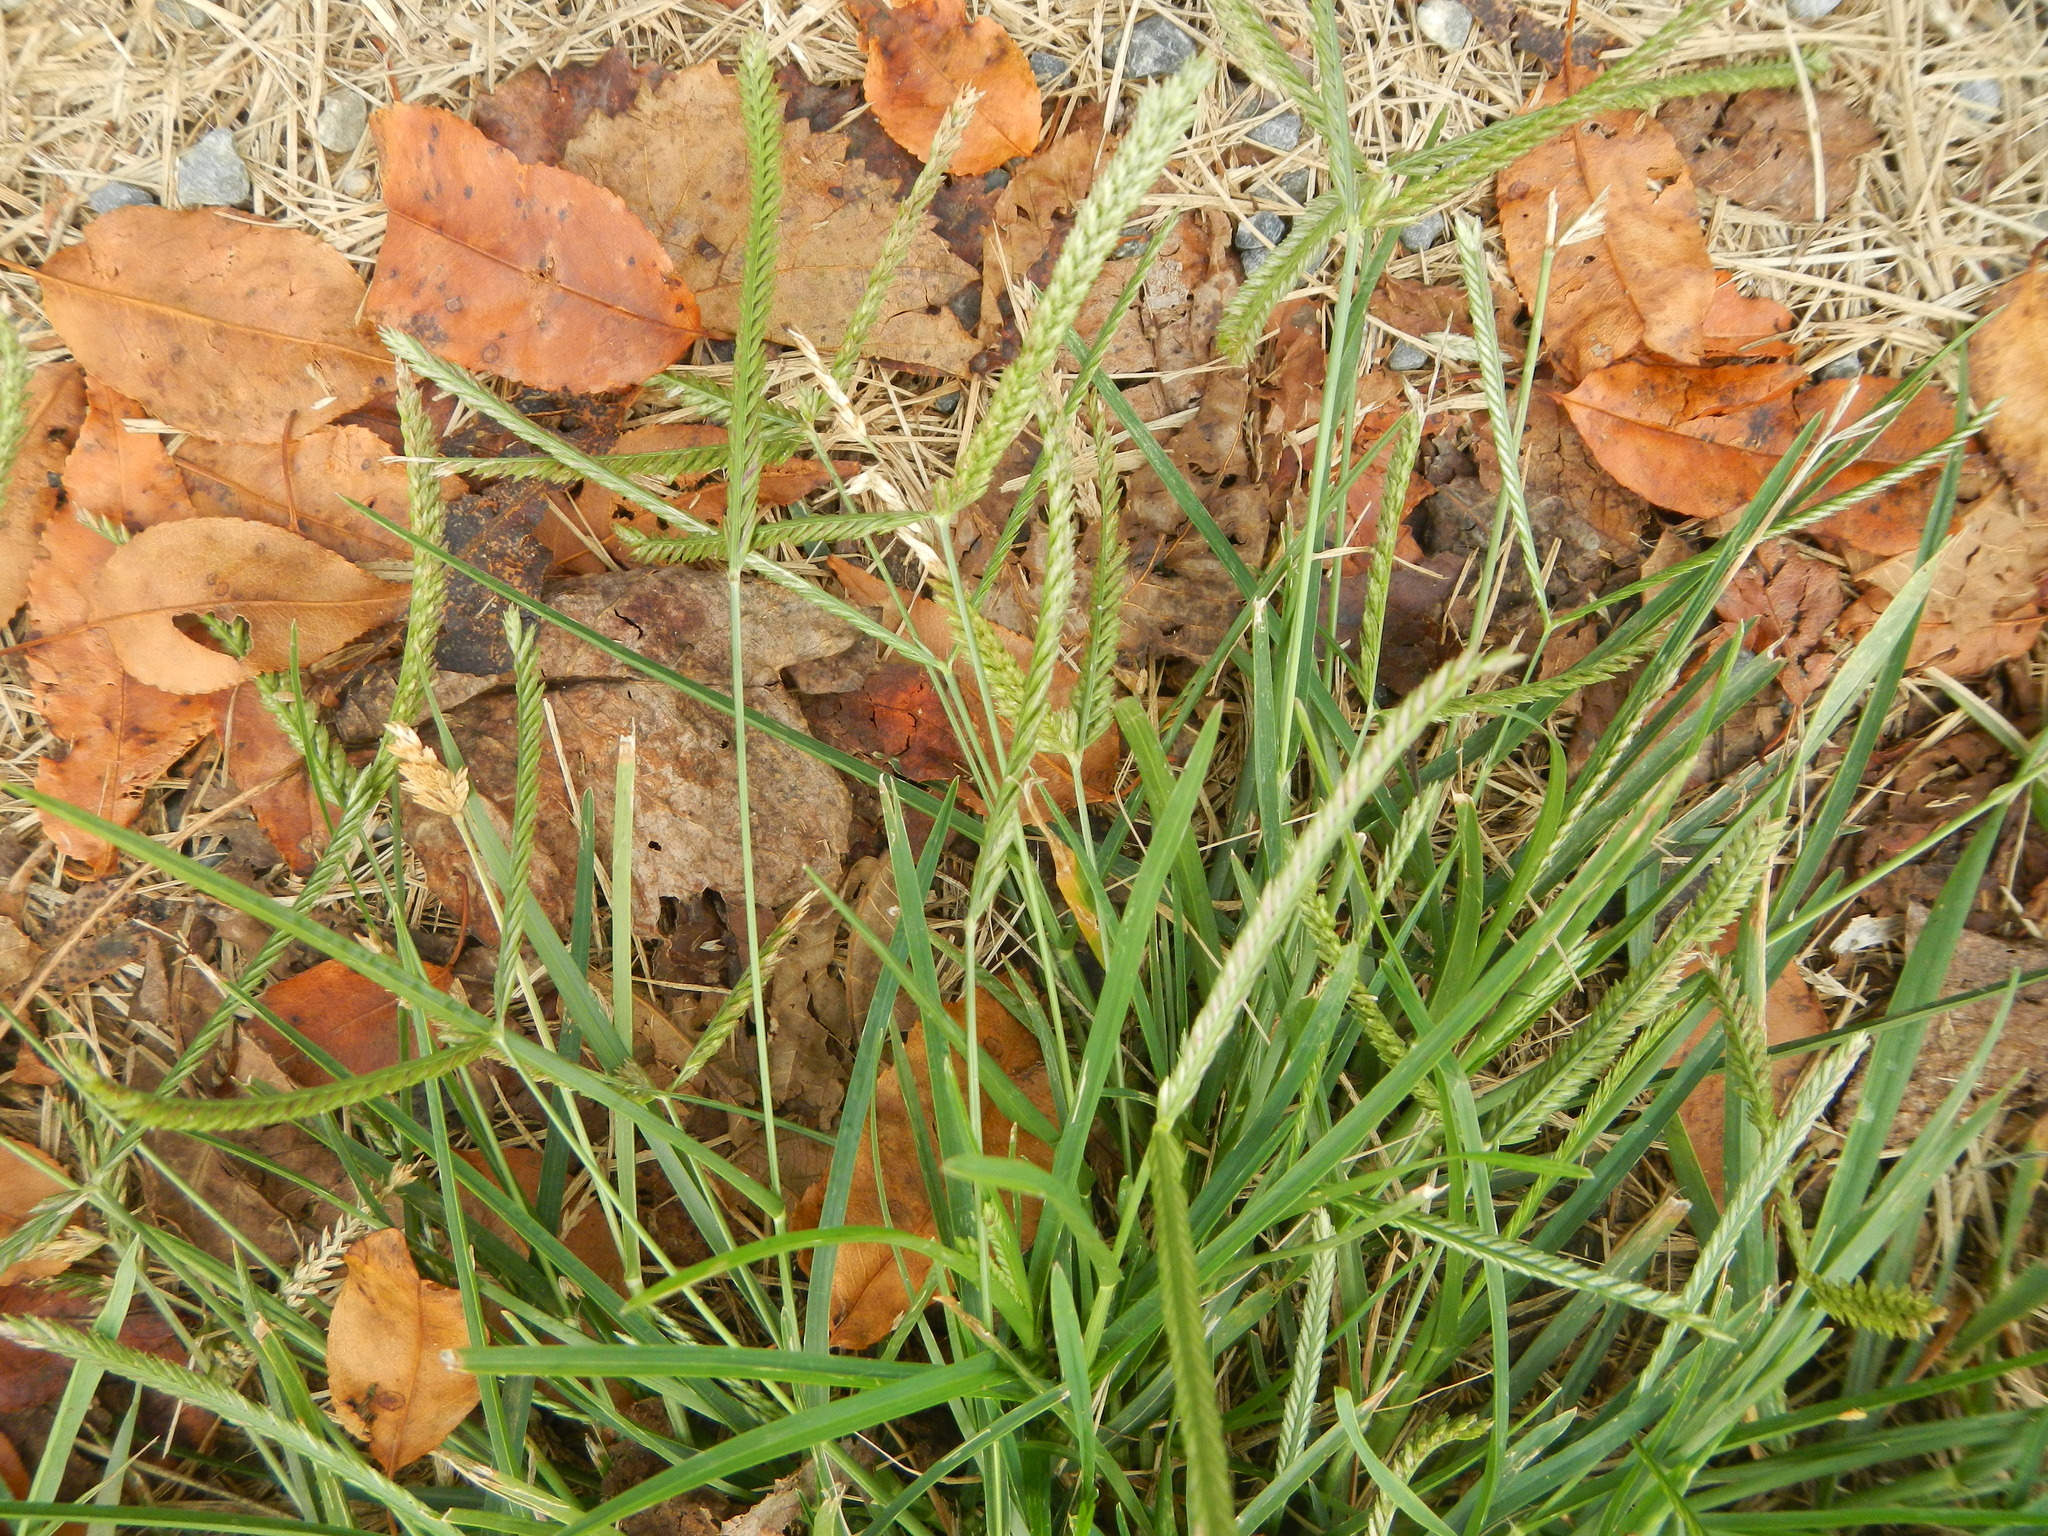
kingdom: Plantae
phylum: Tracheophyta
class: Liliopsida
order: Poales
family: Poaceae
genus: Eleusine
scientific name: Eleusine indica
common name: Yard-grass
